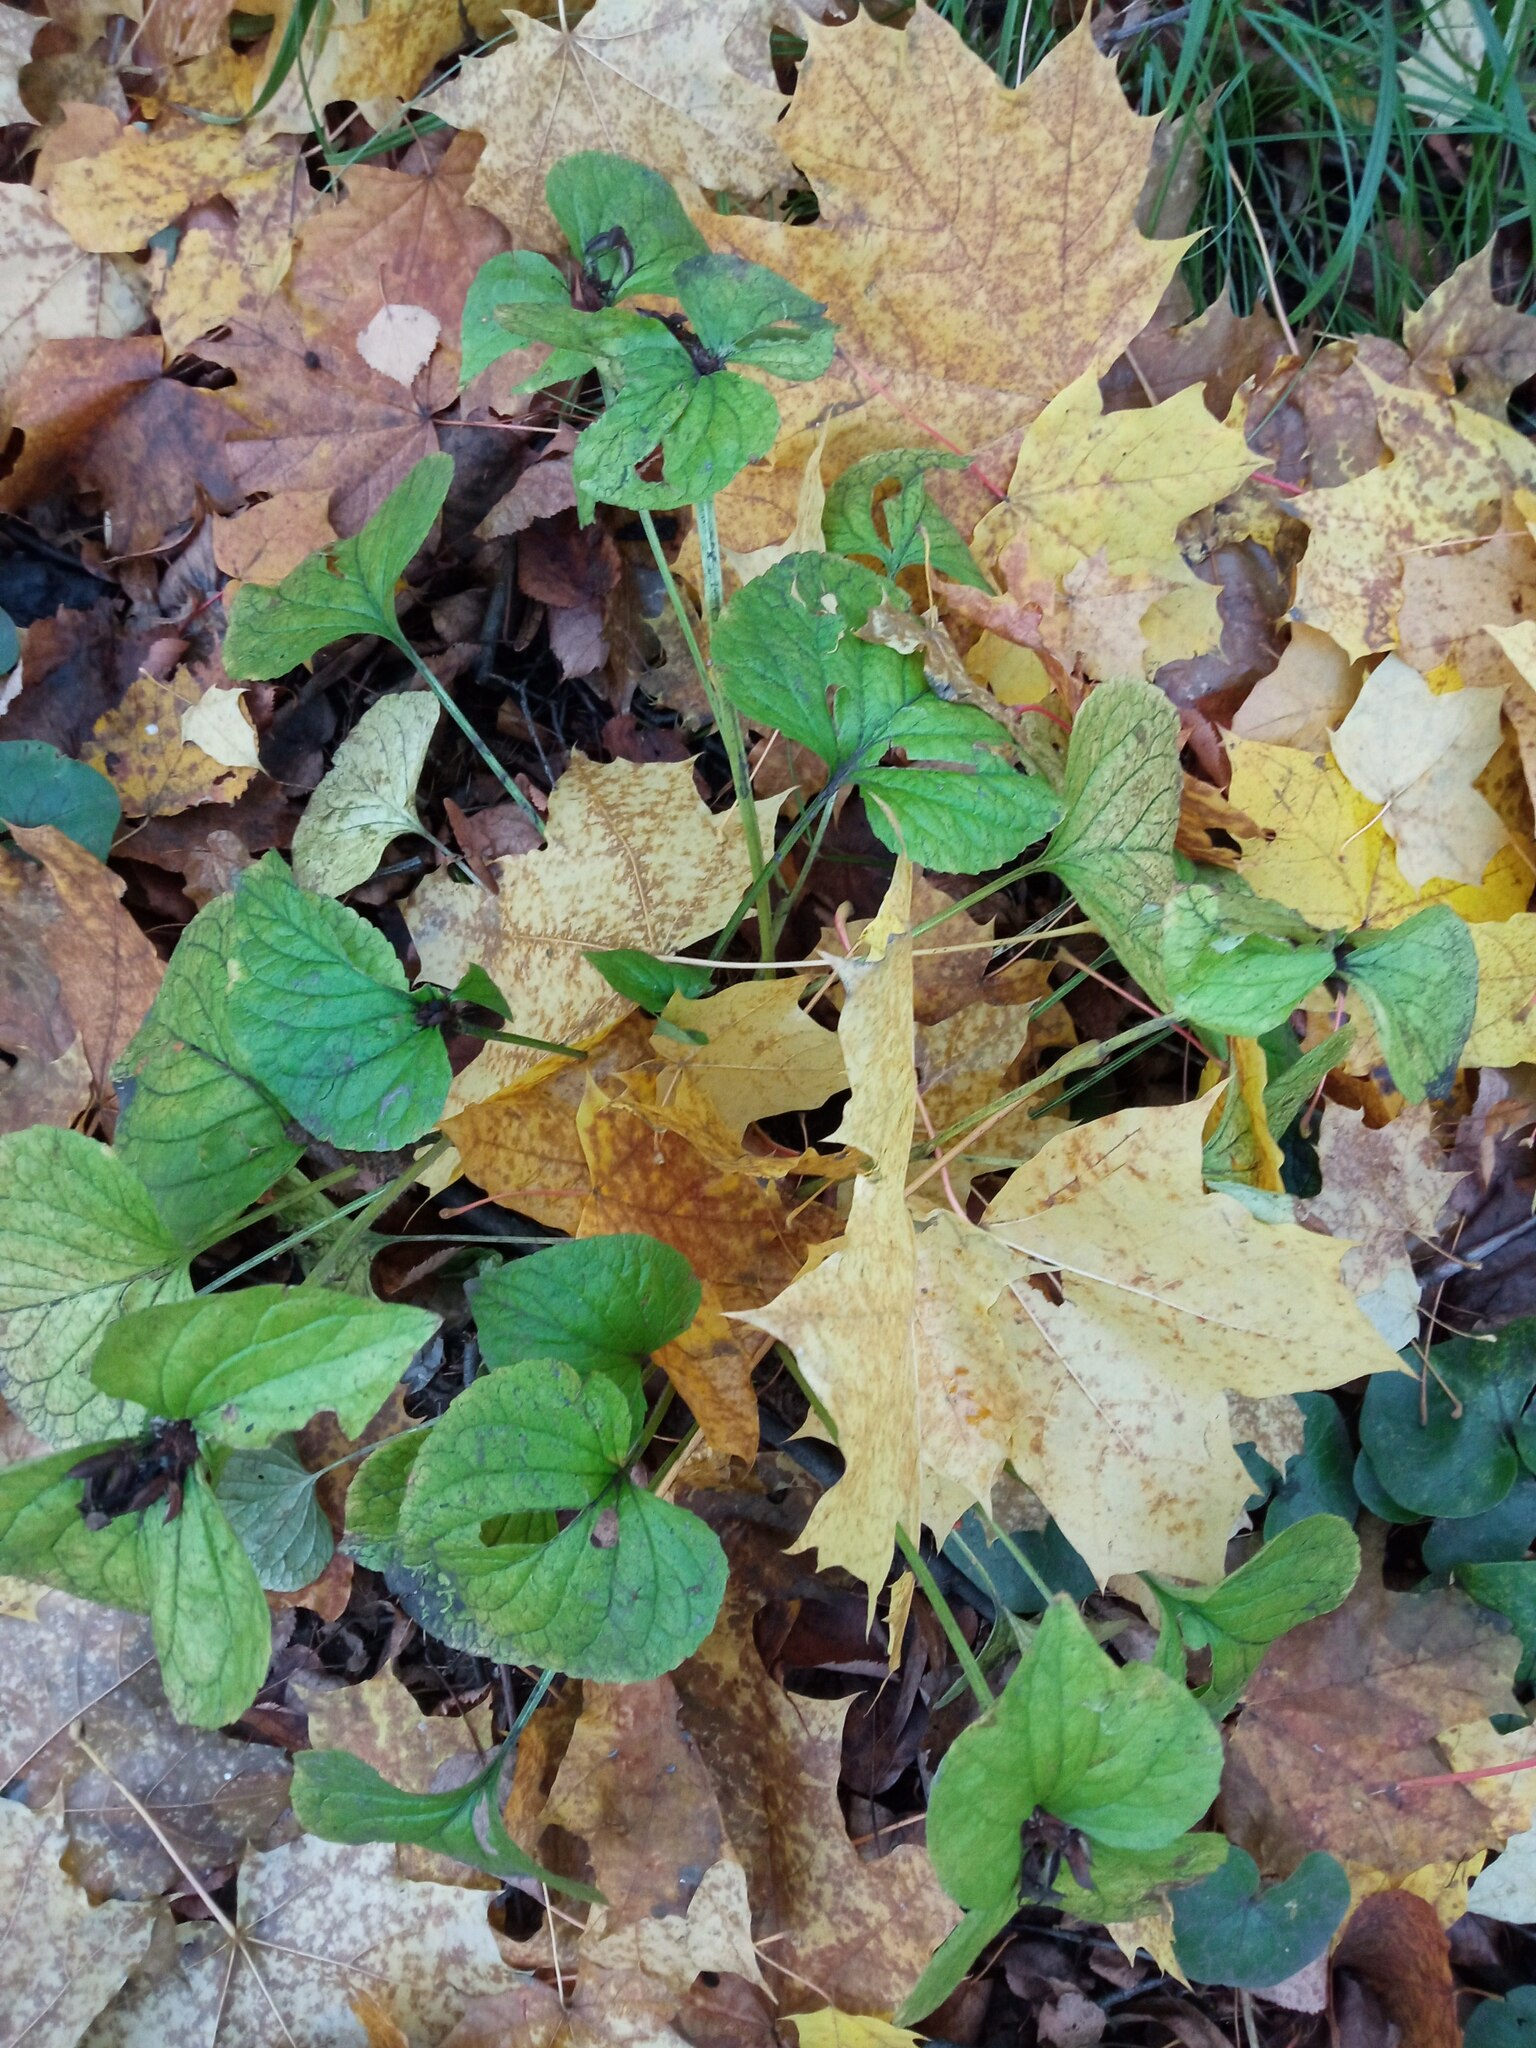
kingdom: Plantae
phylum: Tracheophyta
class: Magnoliopsida
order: Malpighiales
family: Violaceae
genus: Viola
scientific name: Viola mirabilis
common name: Wonder violet
